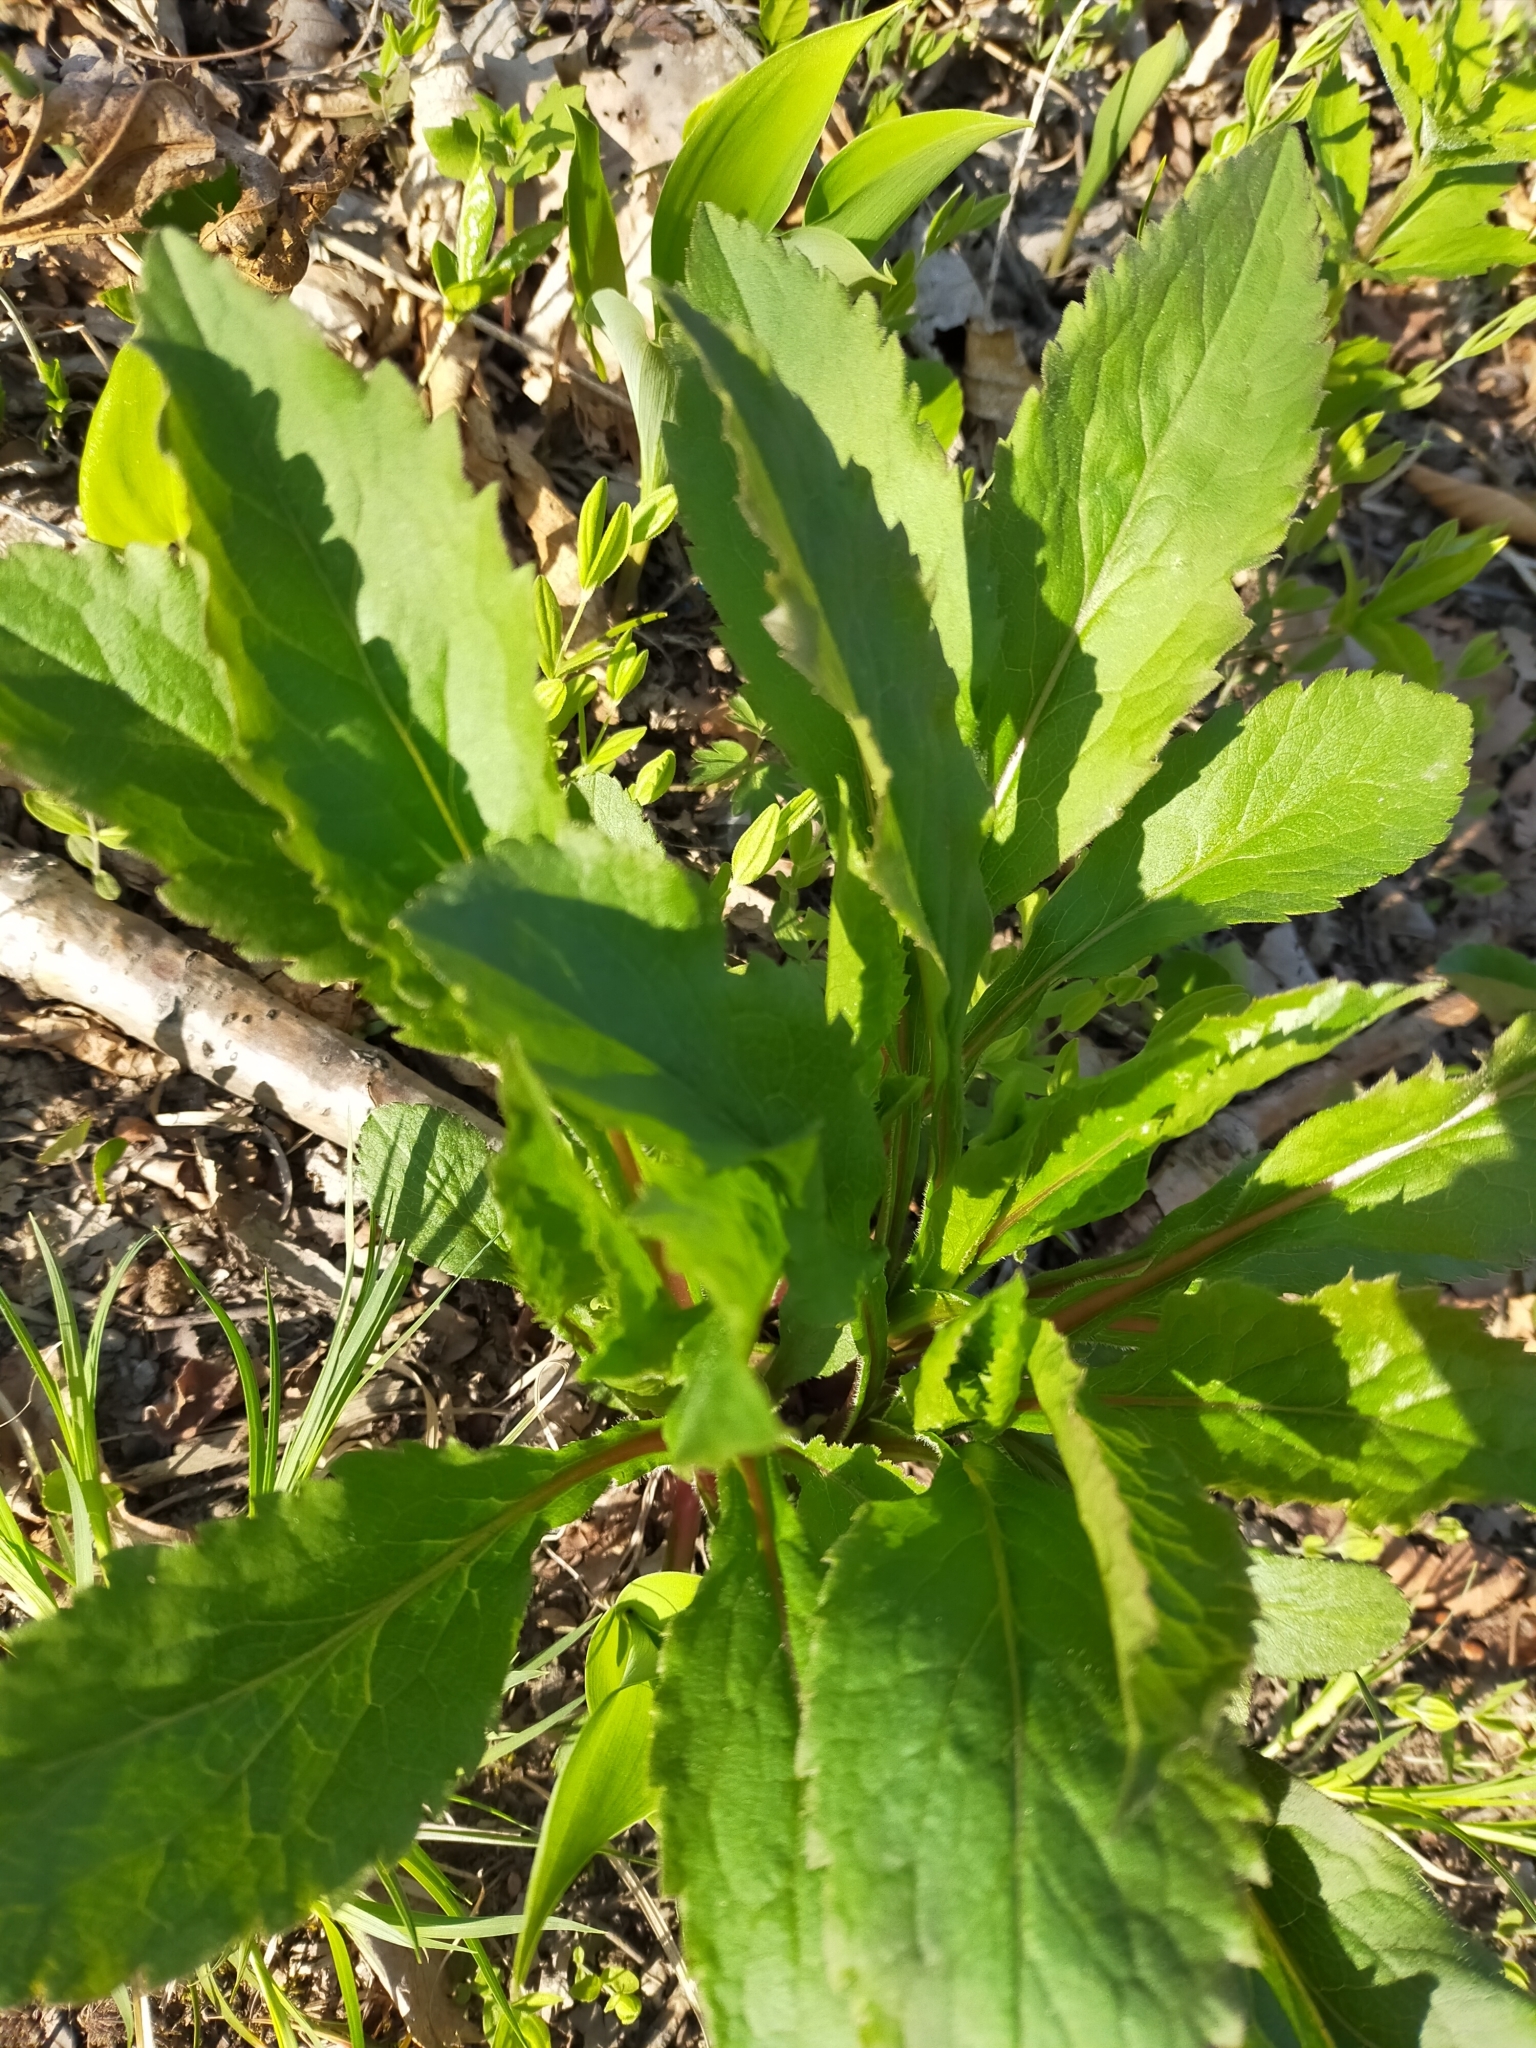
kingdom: Plantae
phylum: Tracheophyta
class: Magnoliopsida
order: Asterales
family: Asteraceae
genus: Solidago
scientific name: Solidago decurrens
